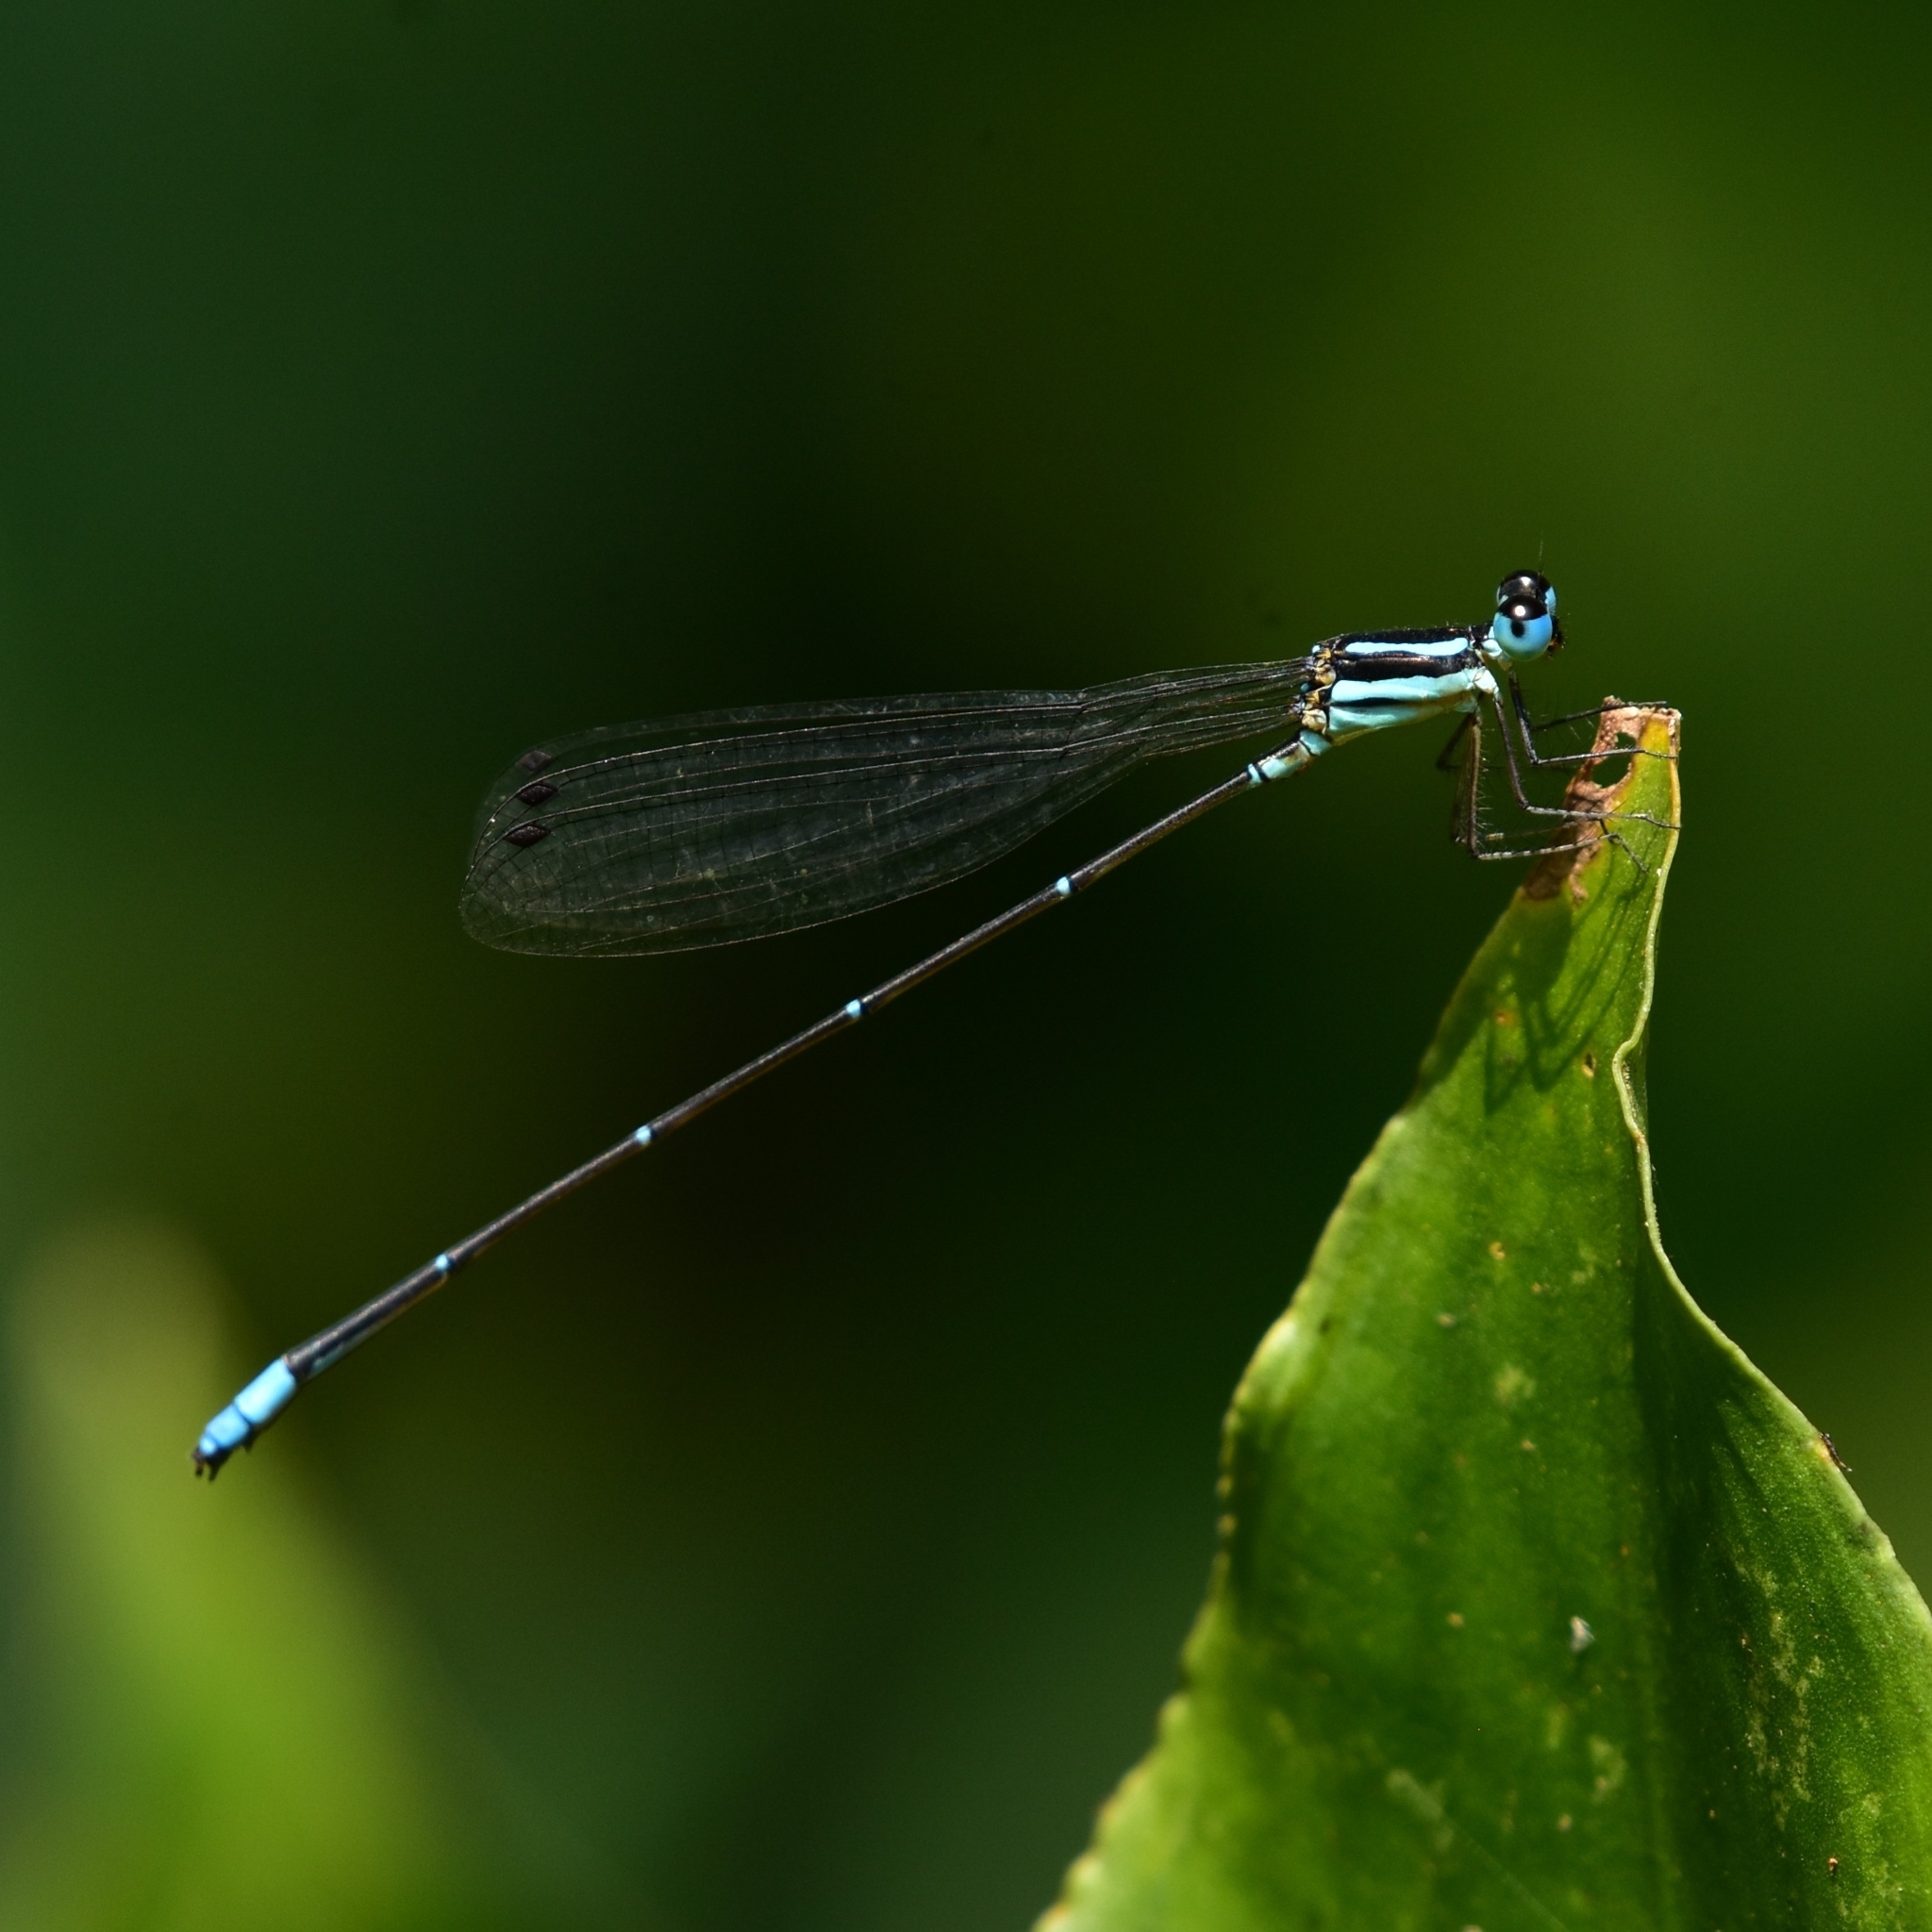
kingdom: Animalia
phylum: Arthropoda
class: Insecta
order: Odonata
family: Platycnemididae
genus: Caconeura
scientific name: Caconeura risi
